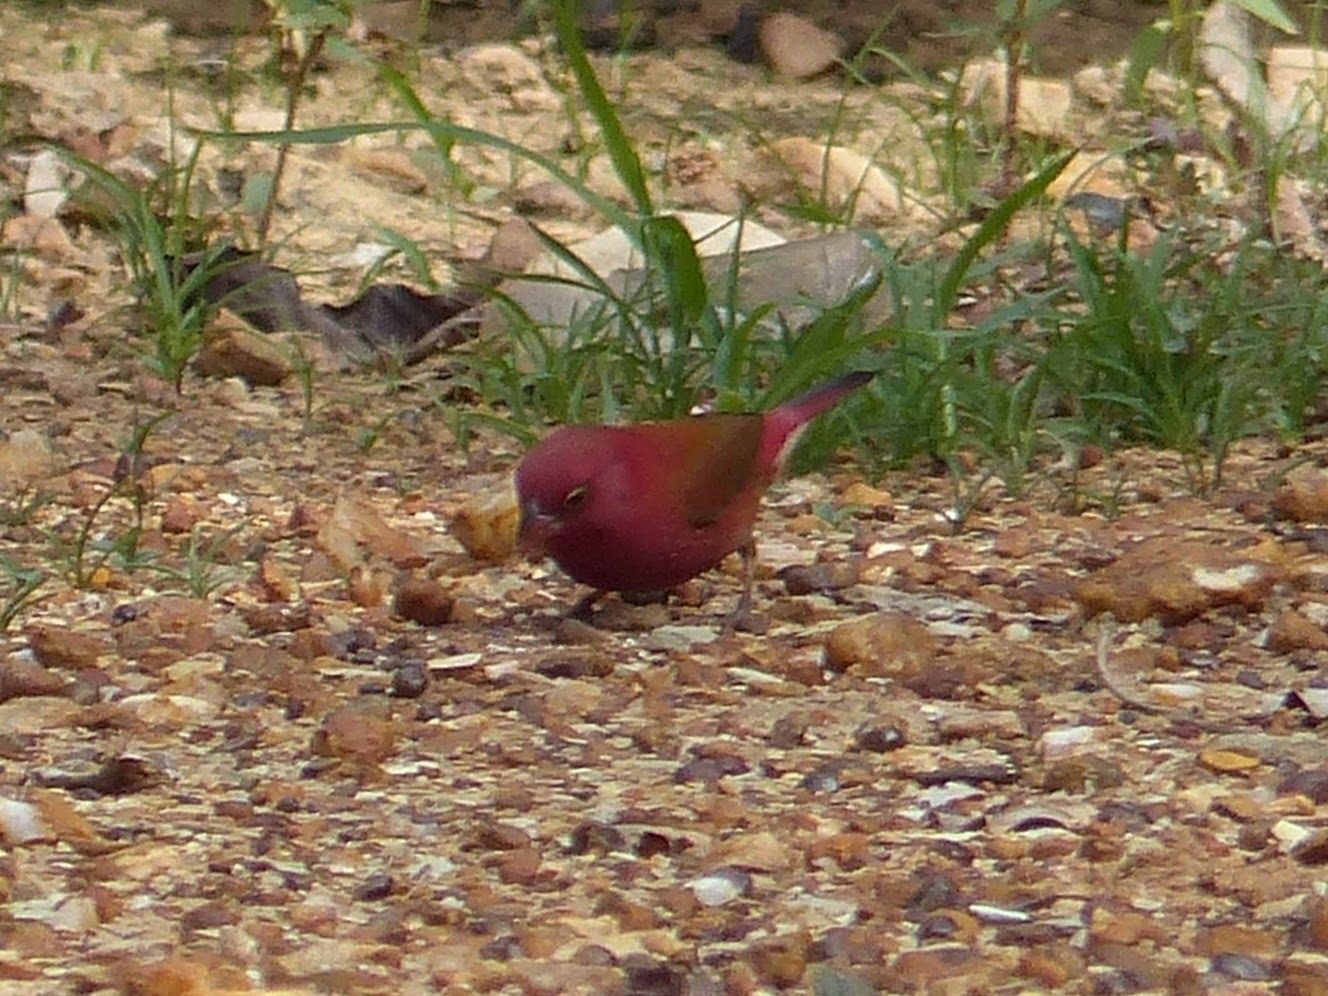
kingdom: Animalia
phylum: Chordata
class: Aves
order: Passeriformes
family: Estrildidae
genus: Lagonosticta
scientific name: Lagonosticta senegala
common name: Red-billed firefinch
